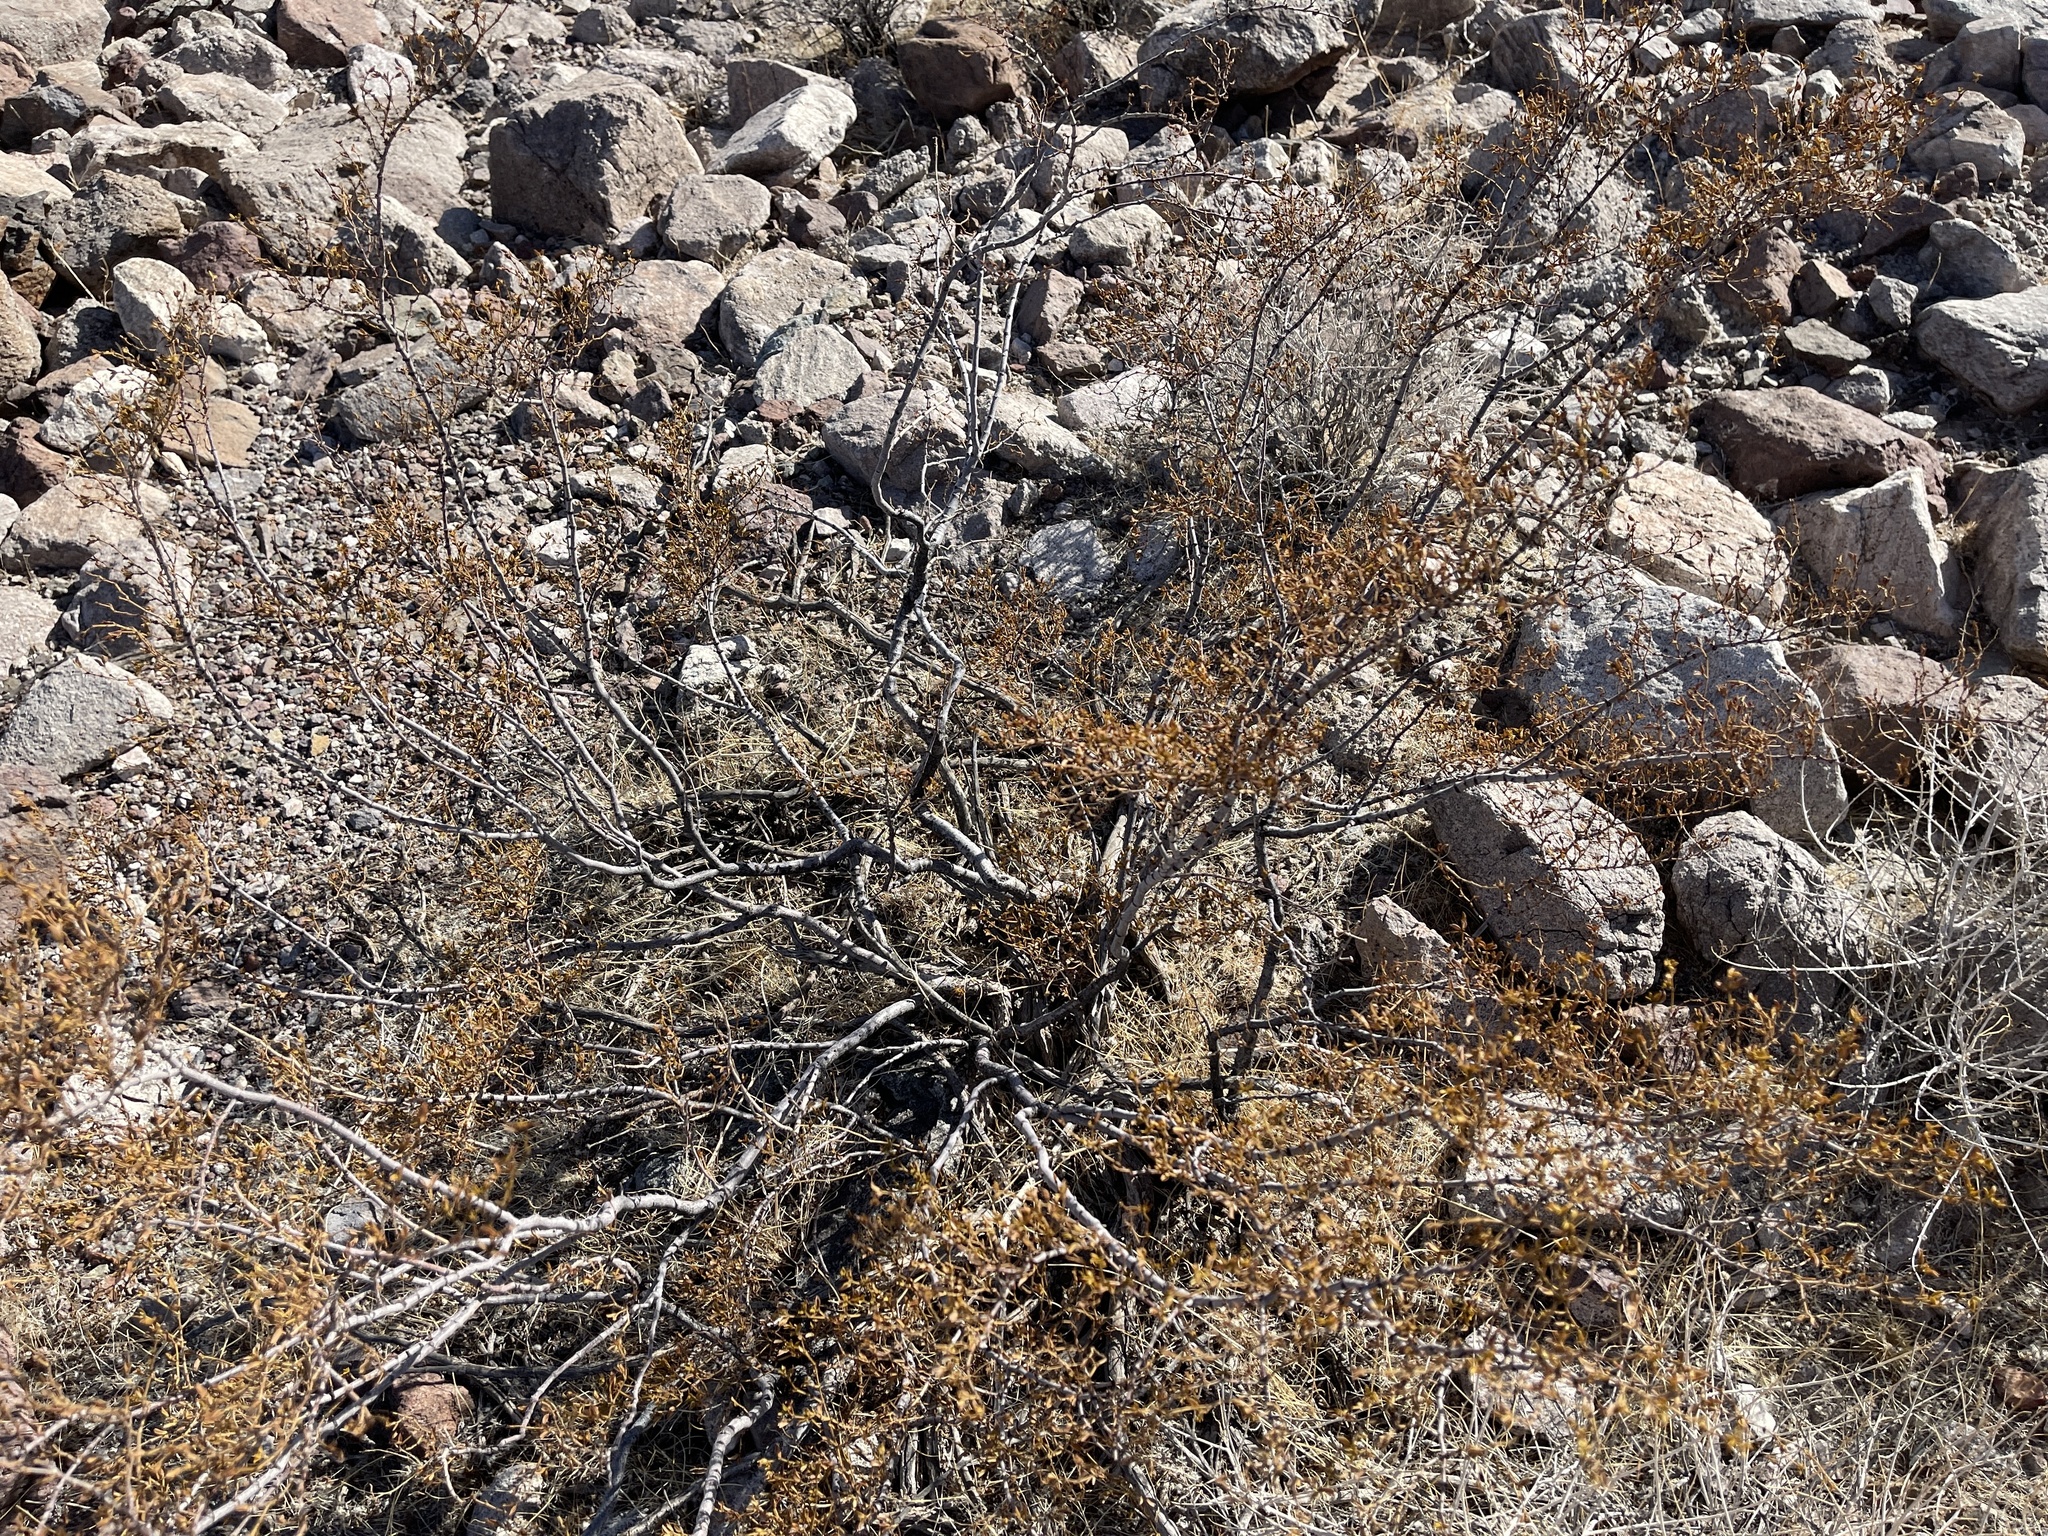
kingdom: Plantae
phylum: Tracheophyta
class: Magnoliopsida
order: Zygophyllales
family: Zygophyllaceae
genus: Larrea
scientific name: Larrea tridentata
